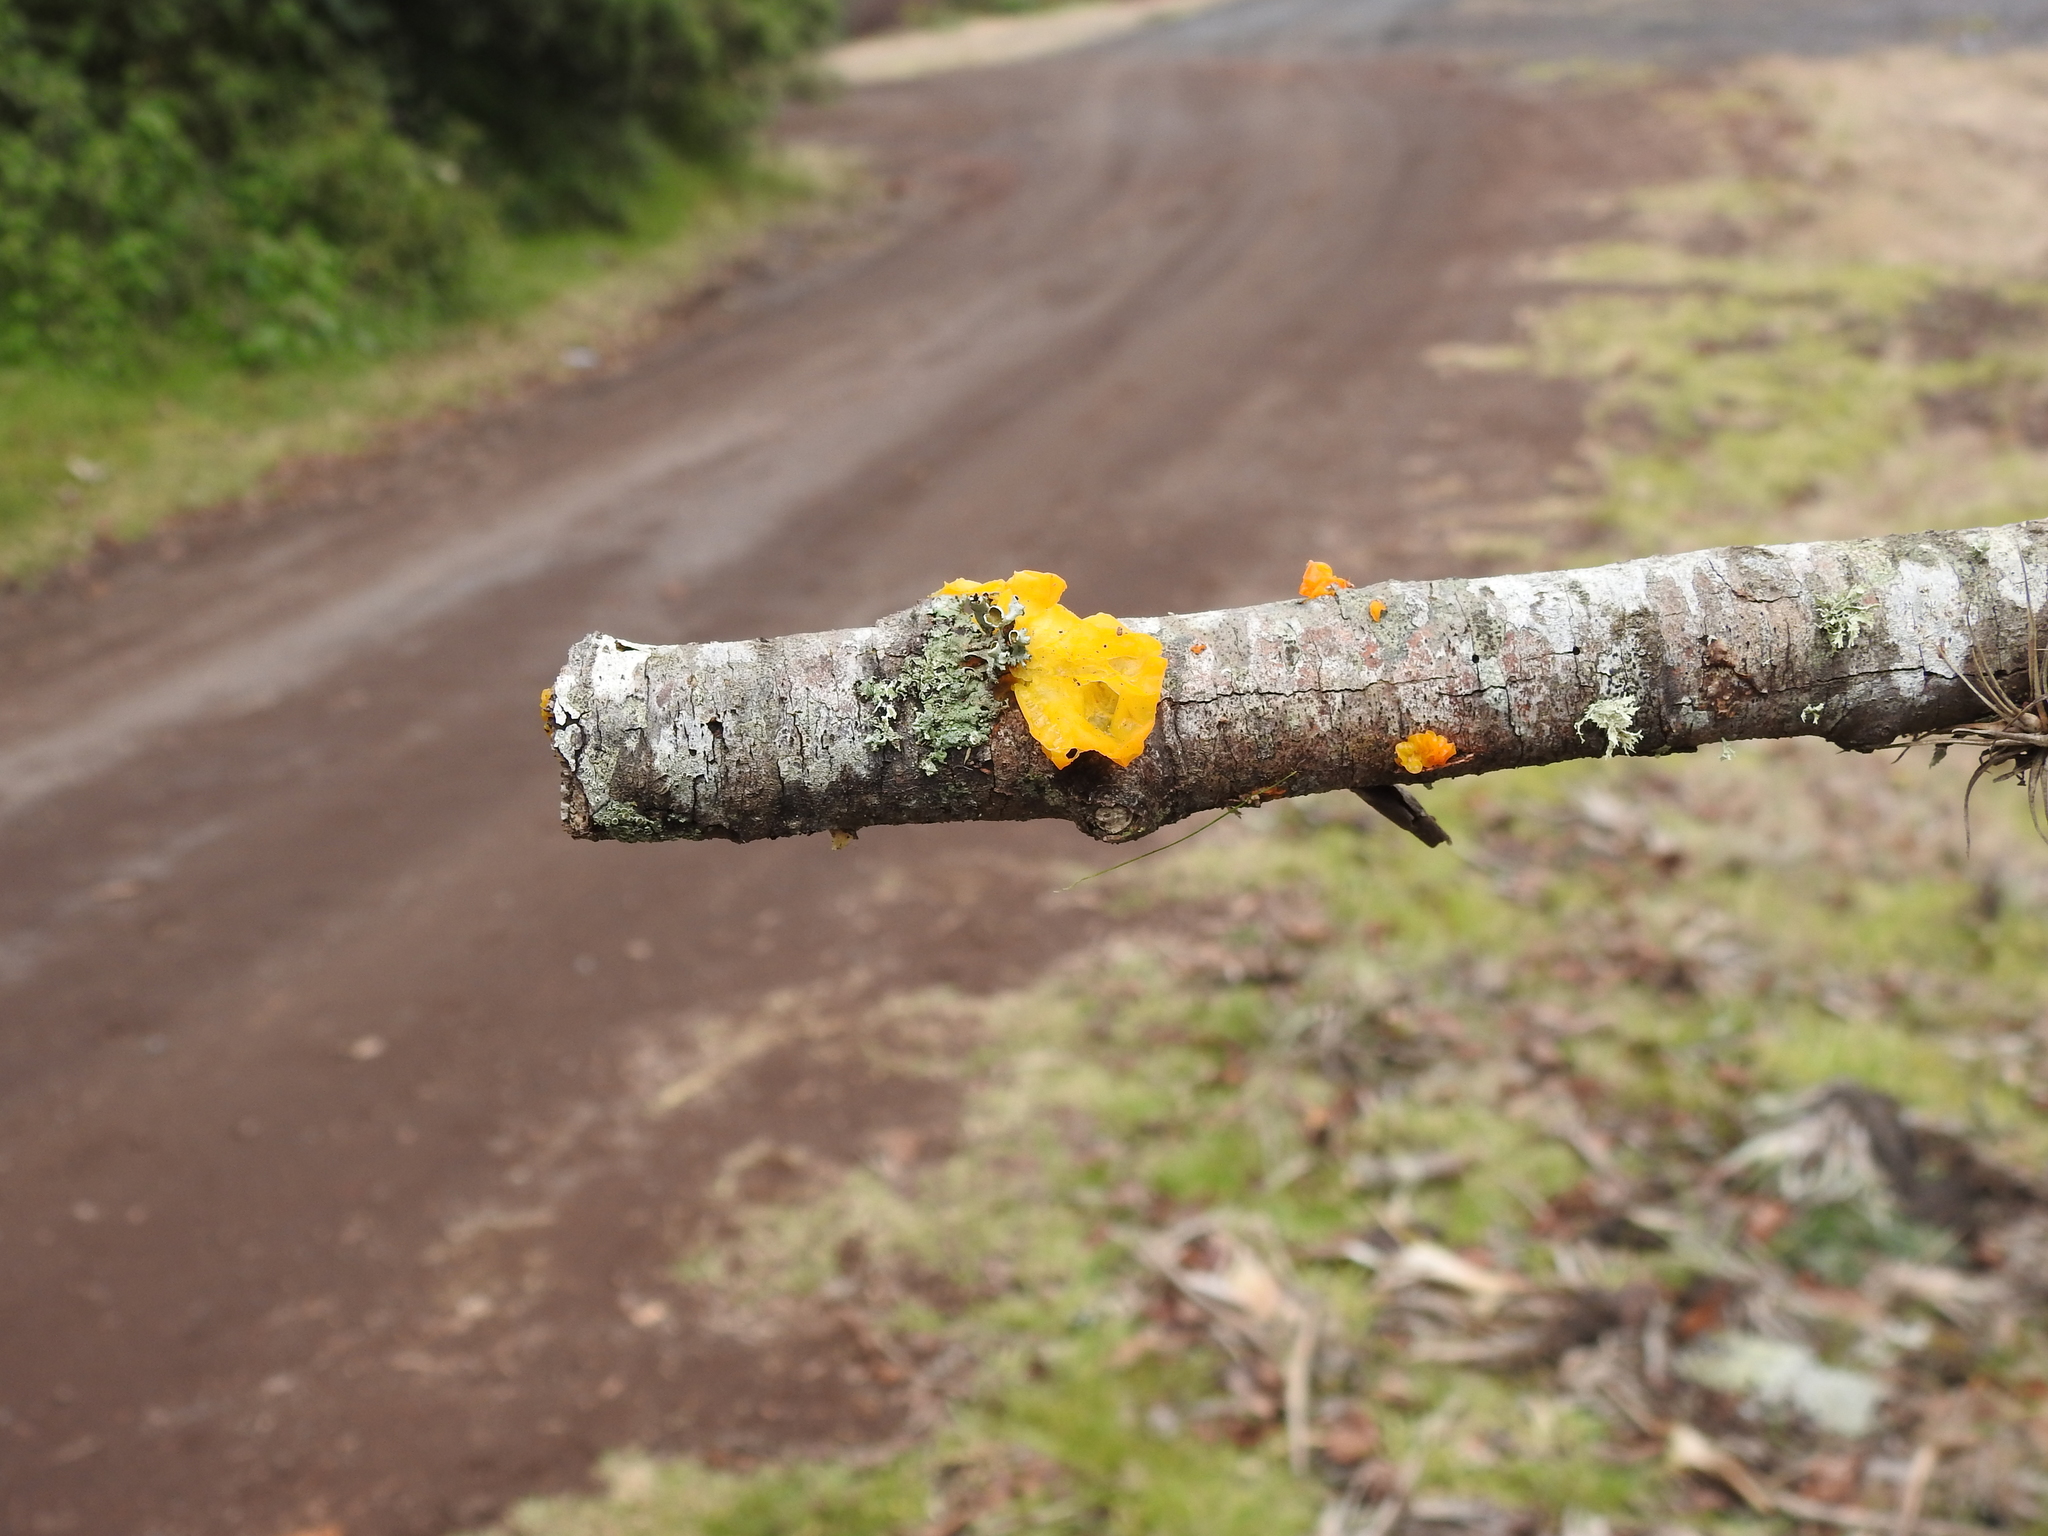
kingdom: Fungi
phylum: Basidiomycota
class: Tremellomycetes
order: Tremellales
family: Tremellaceae
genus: Tremella
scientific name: Tremella mesenterica
